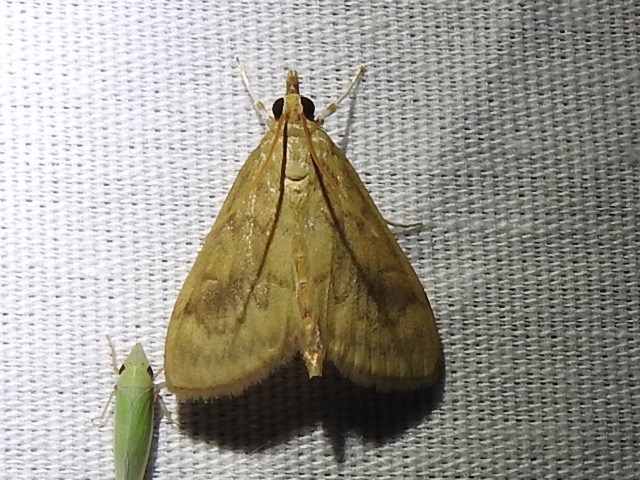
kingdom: Animalia
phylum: Arthropoda
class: Insecta
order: Lepidoptera
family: Crambidae
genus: Ostrinia
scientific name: Ostrinia penitalis
